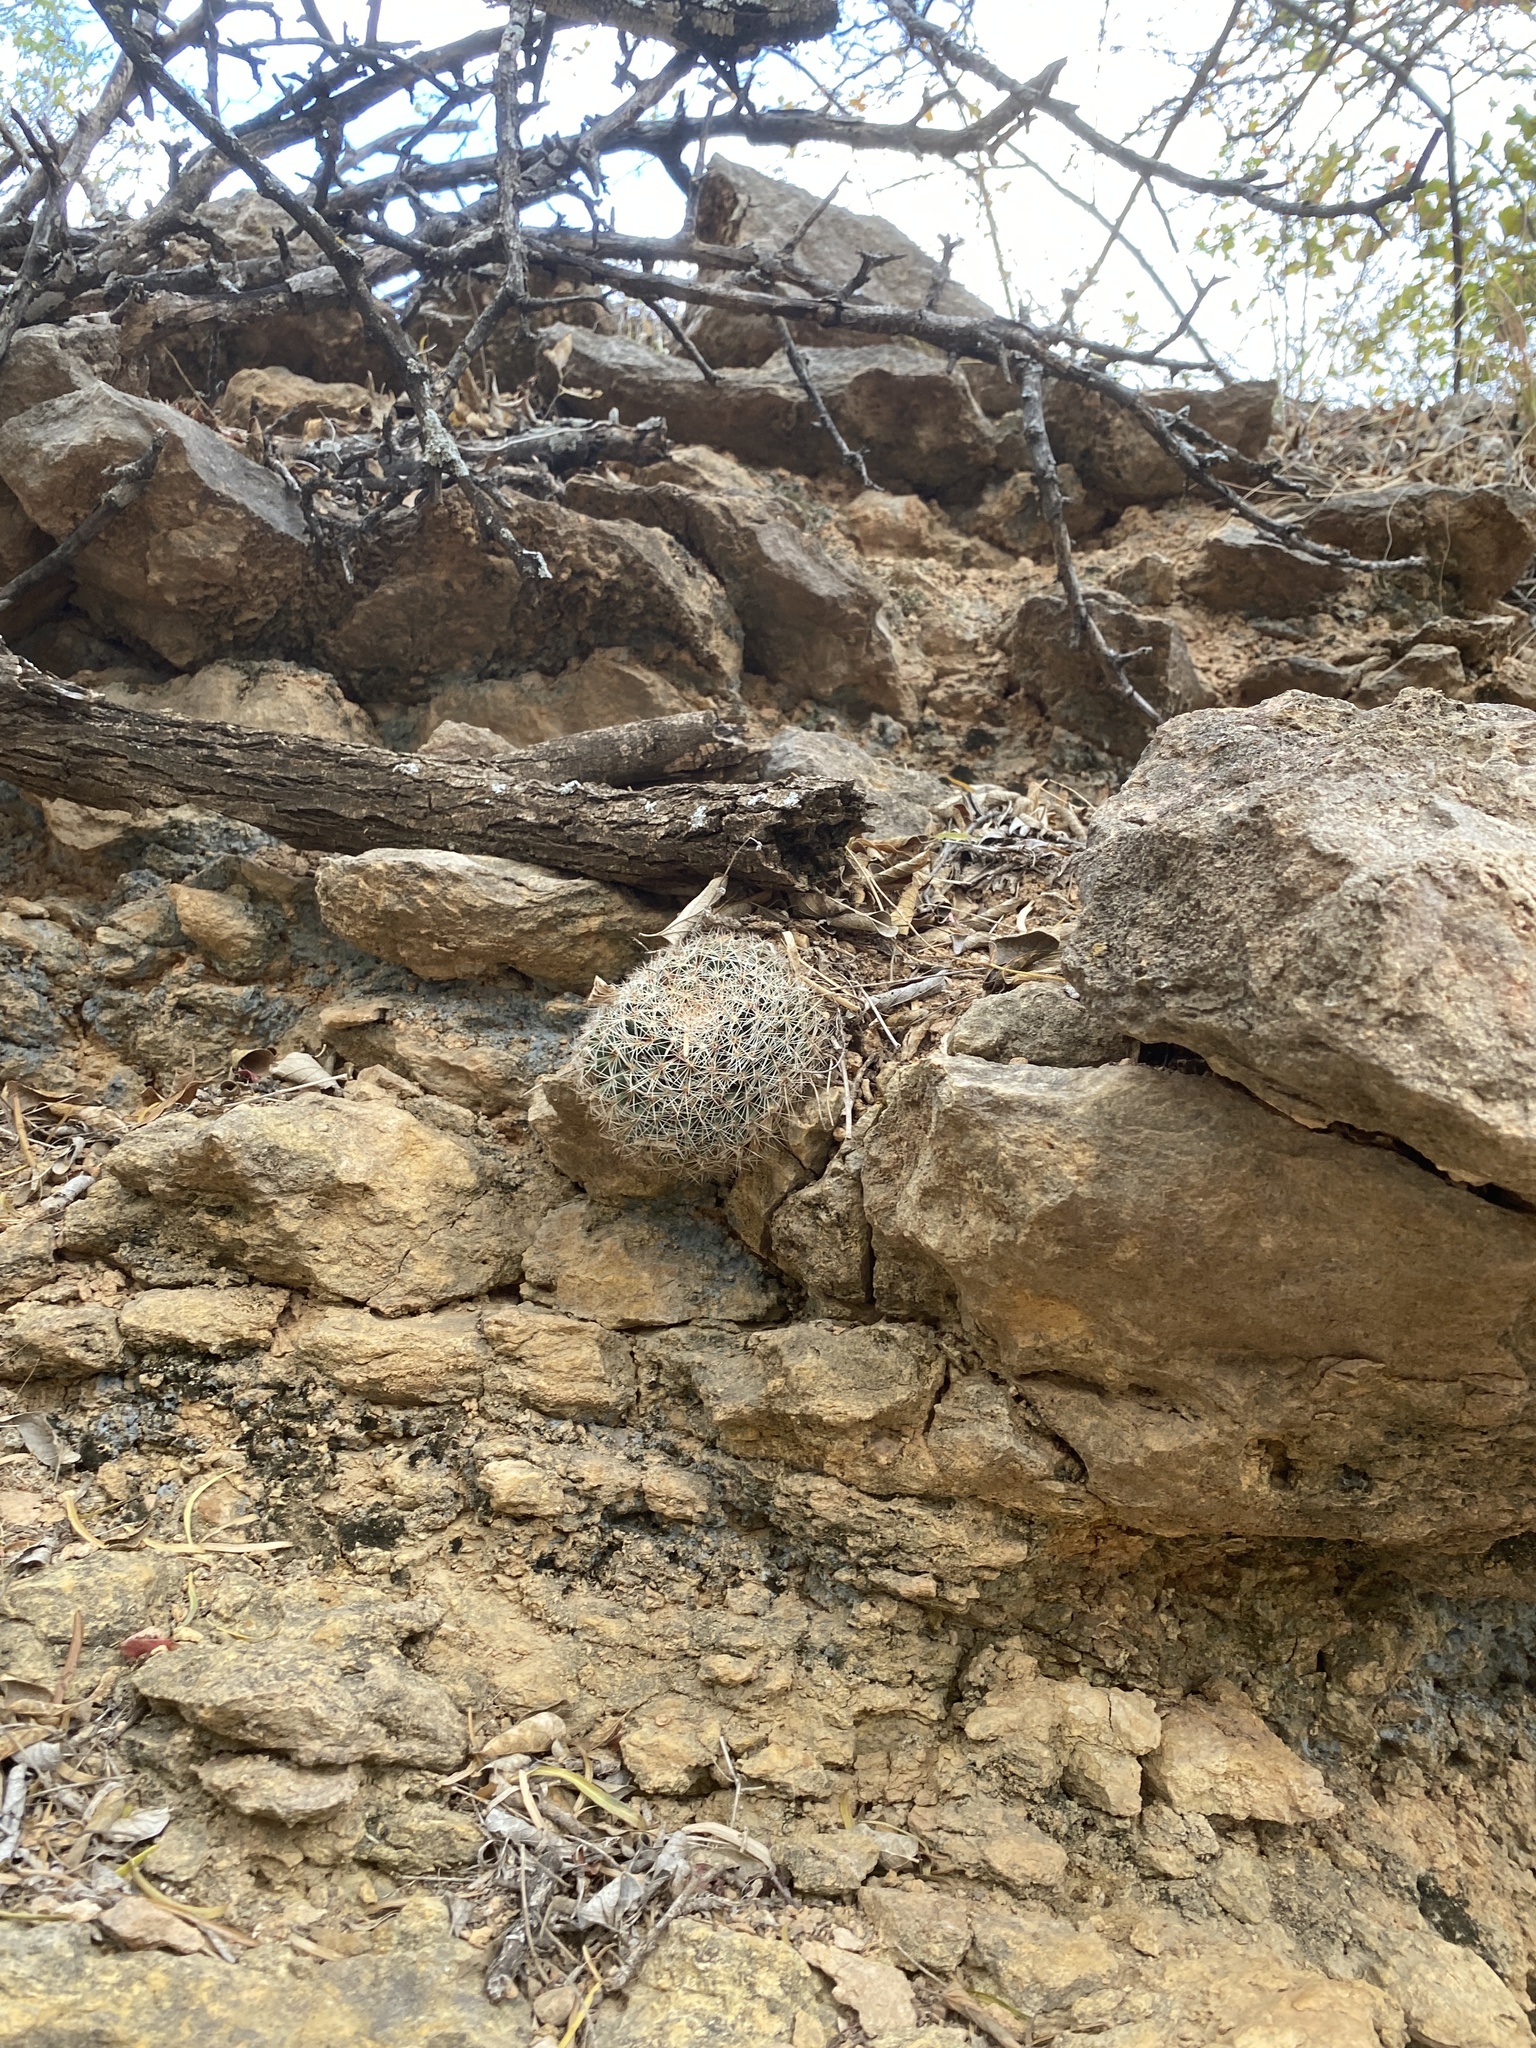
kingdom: Plantae
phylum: Tracheophyta
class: Magnoliopsida
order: Caryophyllales
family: Cactaceae
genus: Mammillaria
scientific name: Mammillaria heyderi
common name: Little nipple cactus
